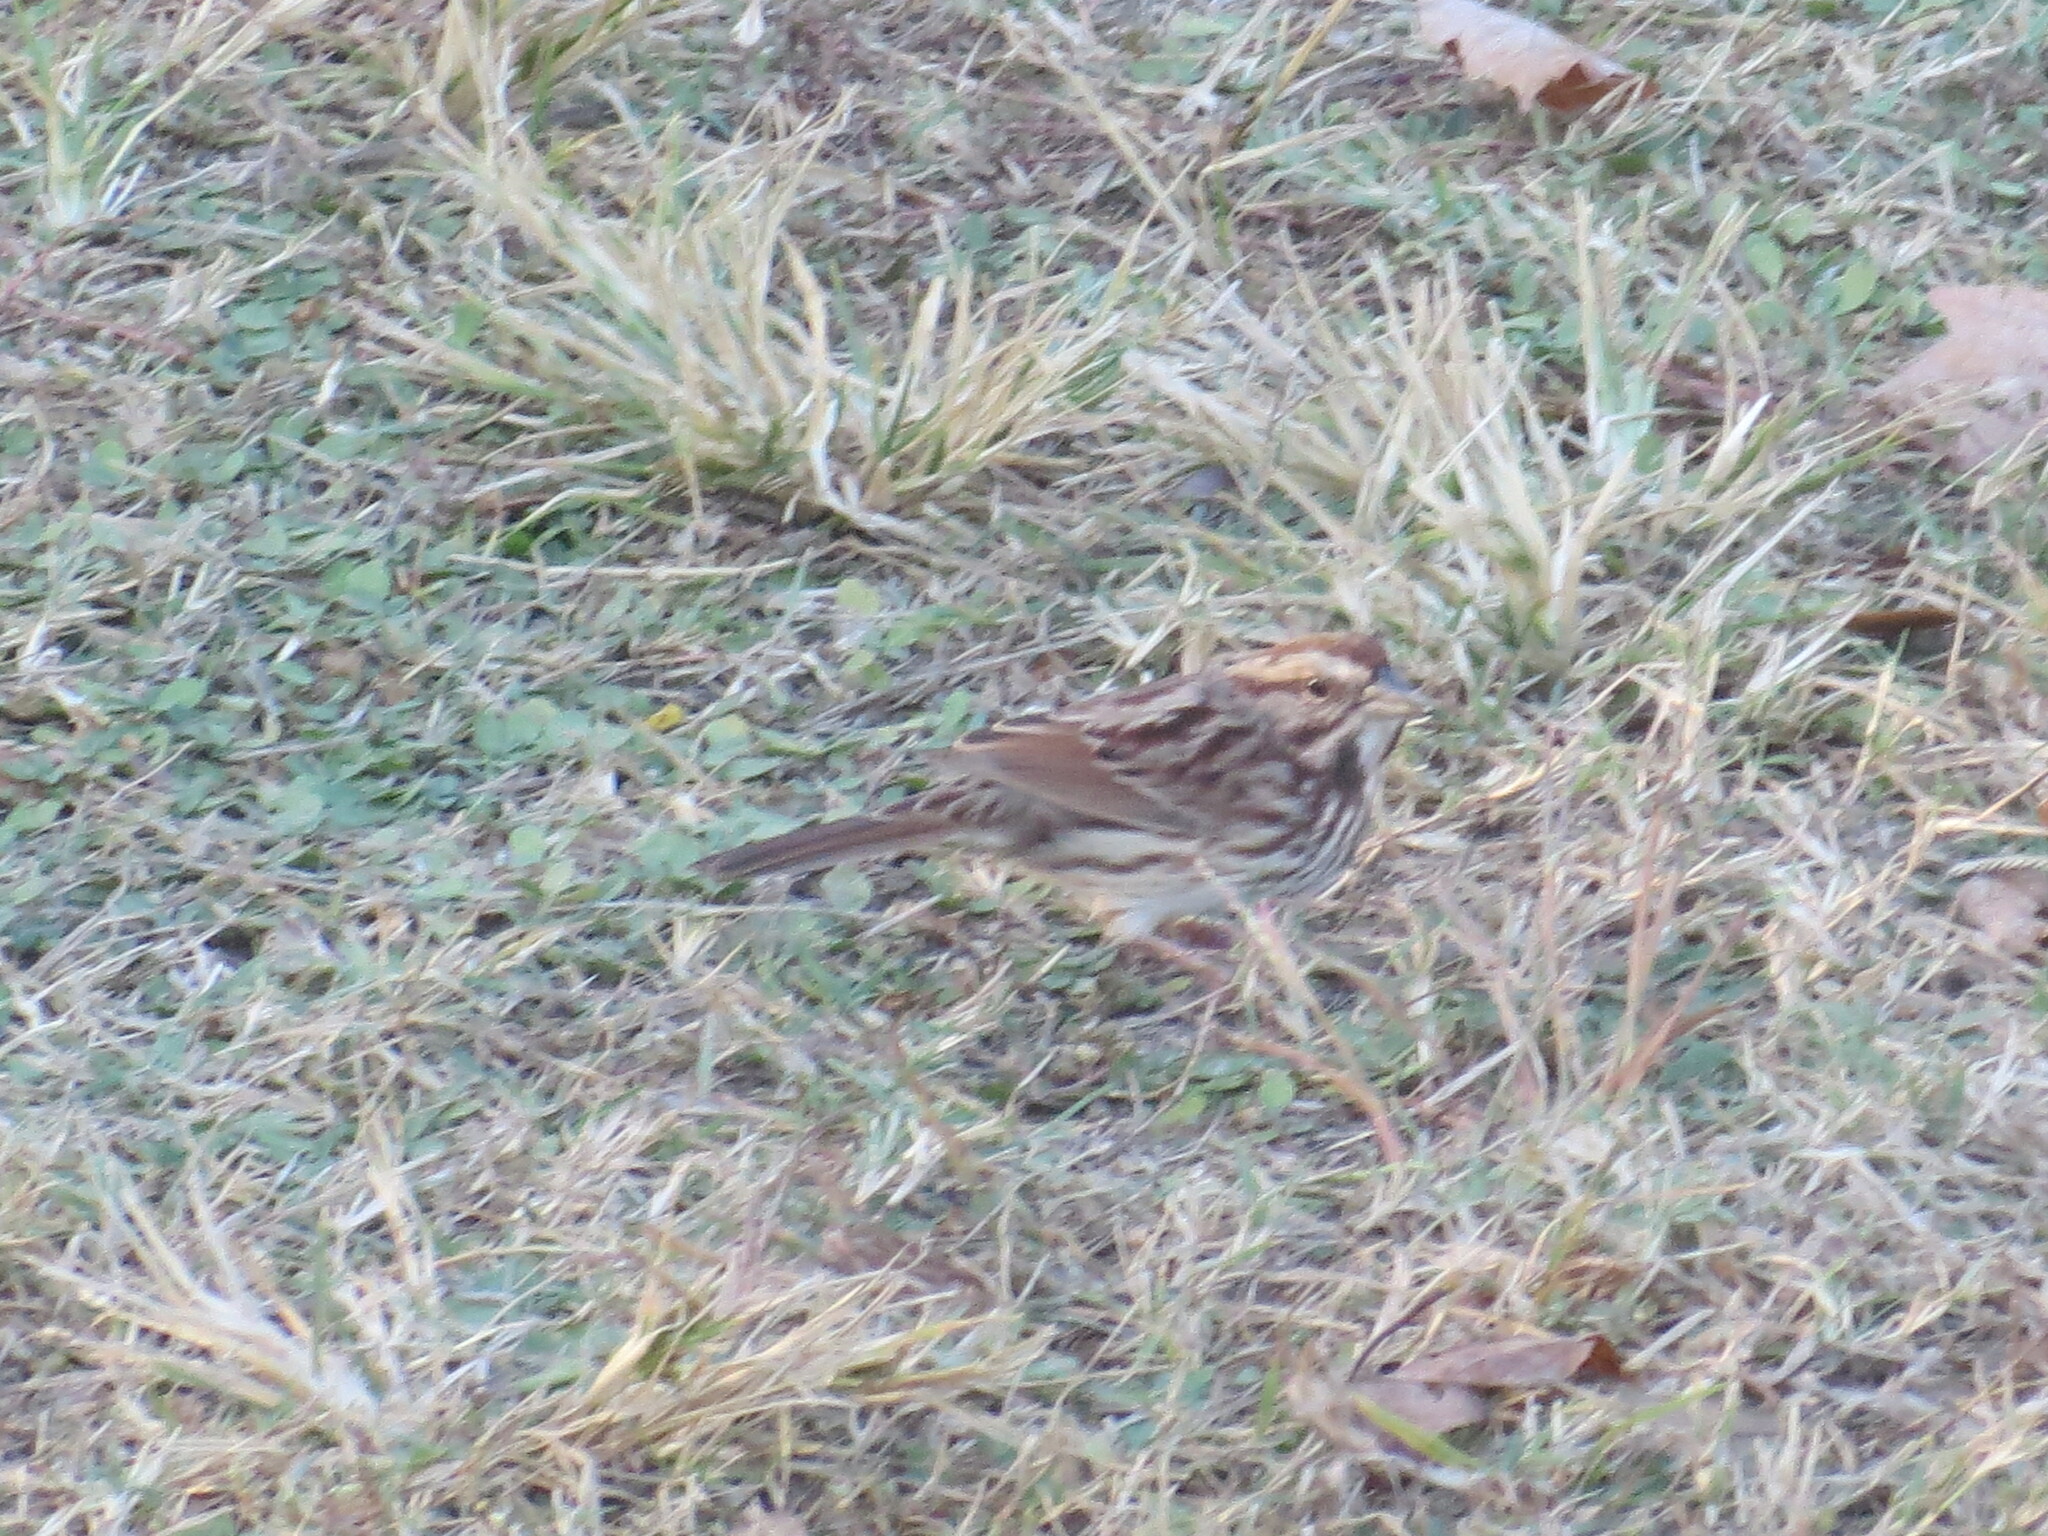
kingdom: Animalia
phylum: Chordata
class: Aves
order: Passeriformes
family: Passerellidae
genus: Melospiza
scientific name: Melospiza melodia
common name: Song sparrow
